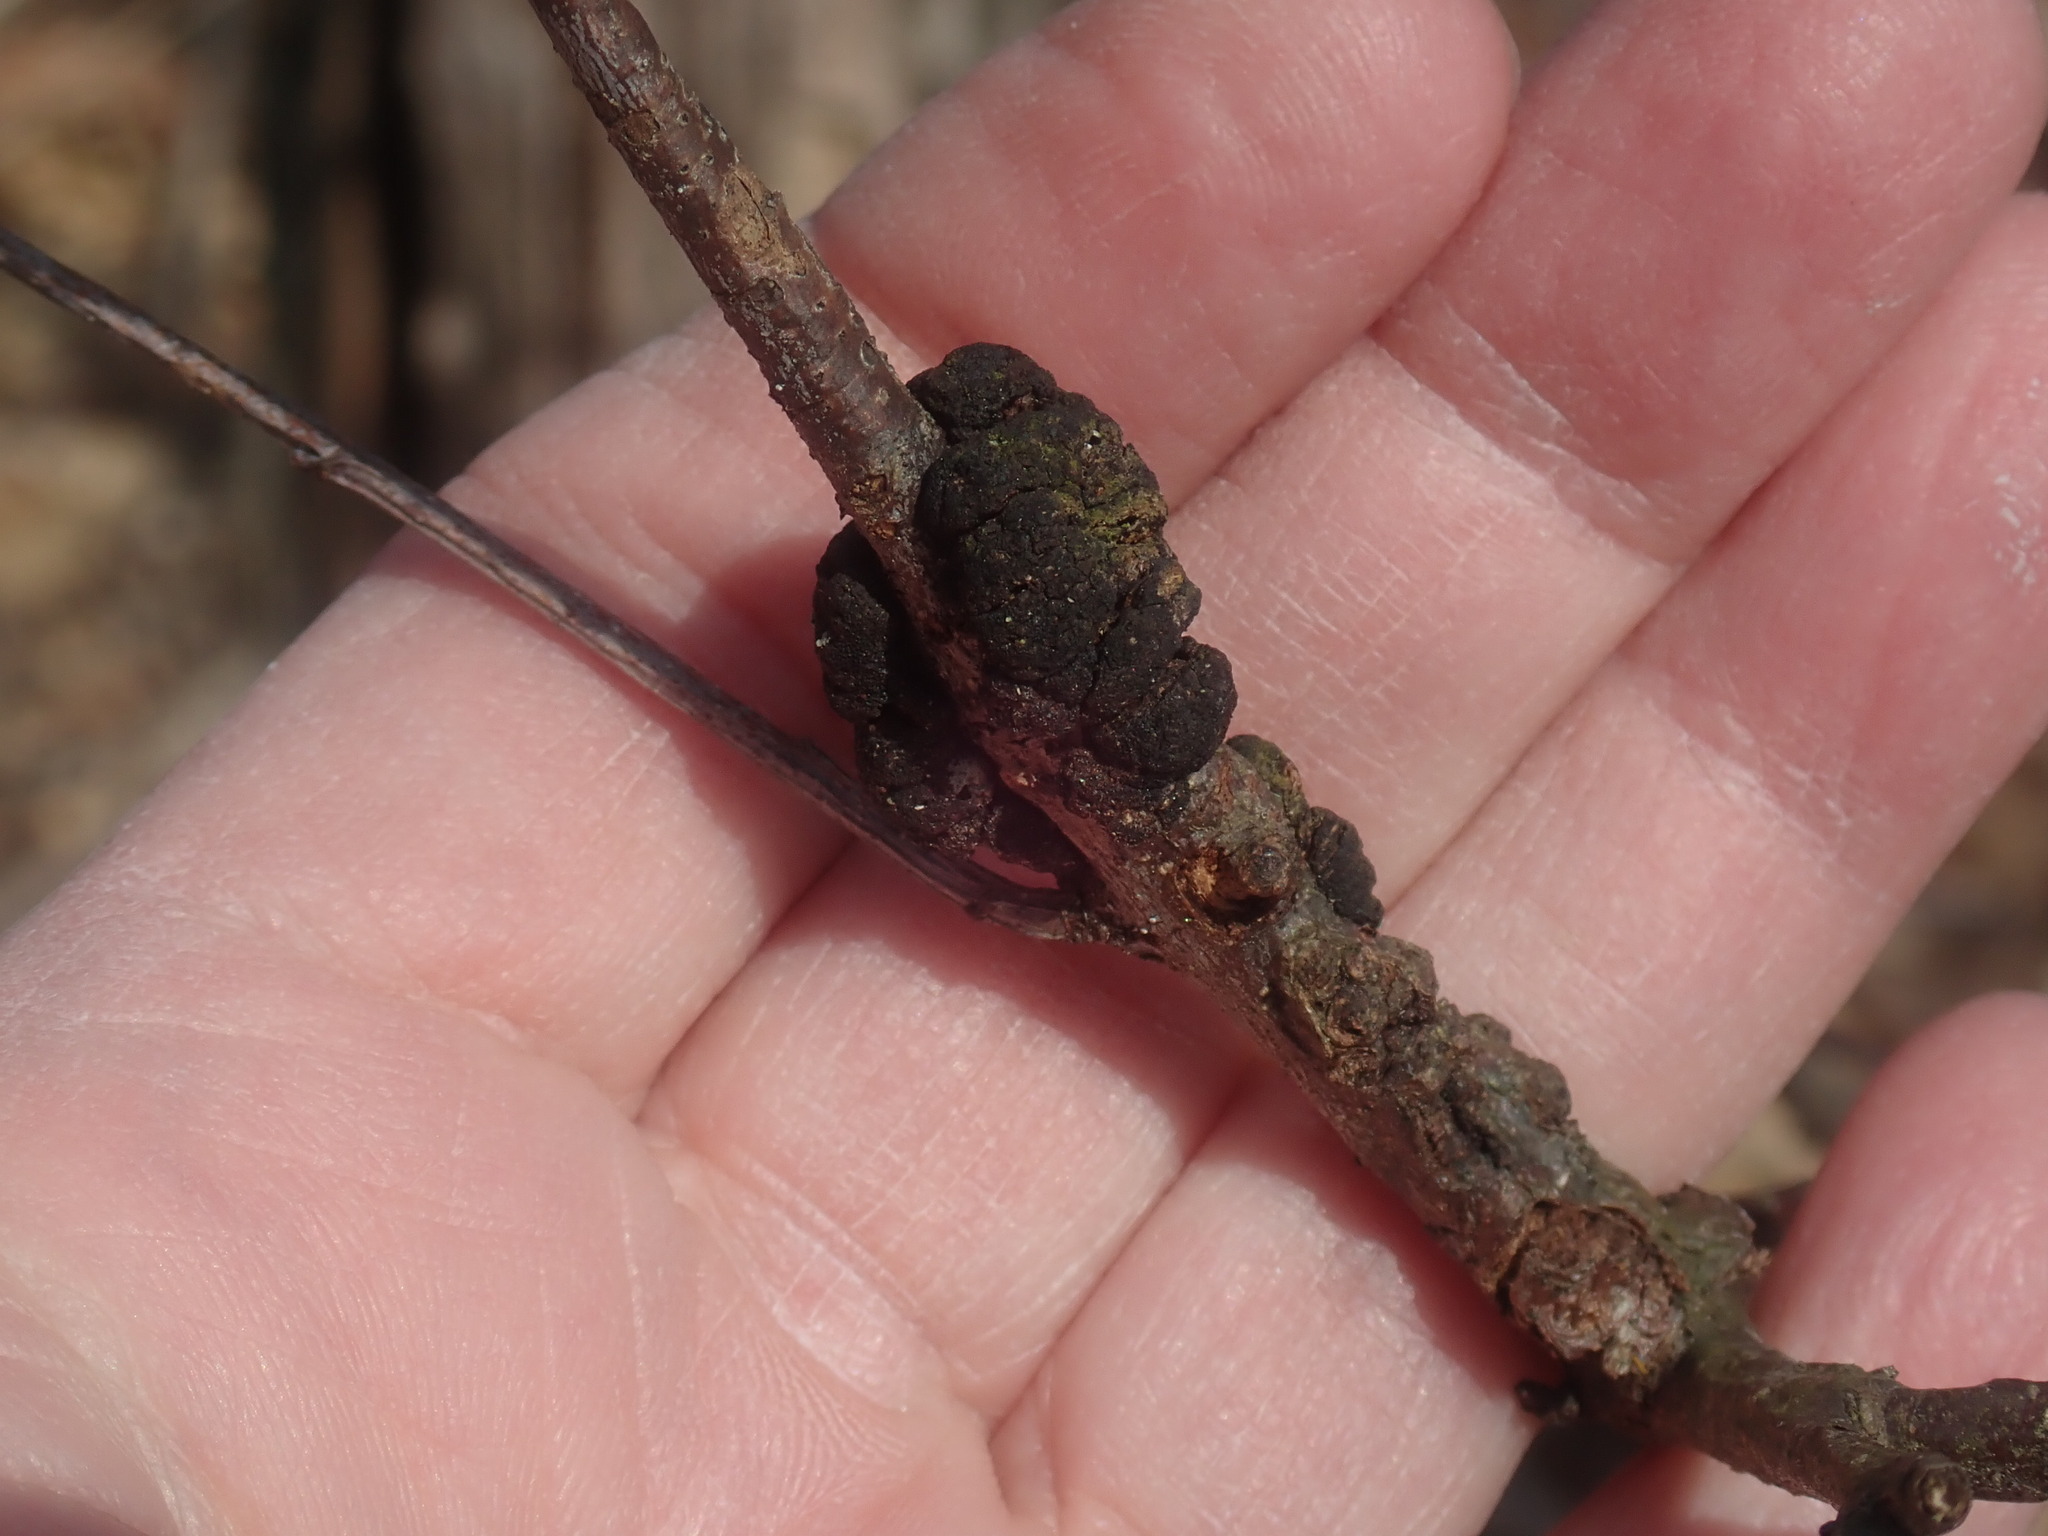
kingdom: Fungi
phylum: Ascomycota
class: Dothideomycetes
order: Venturiales
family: Venturiaceae
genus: Apiosporina
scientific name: Apiosporina morbosa
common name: Black knot
